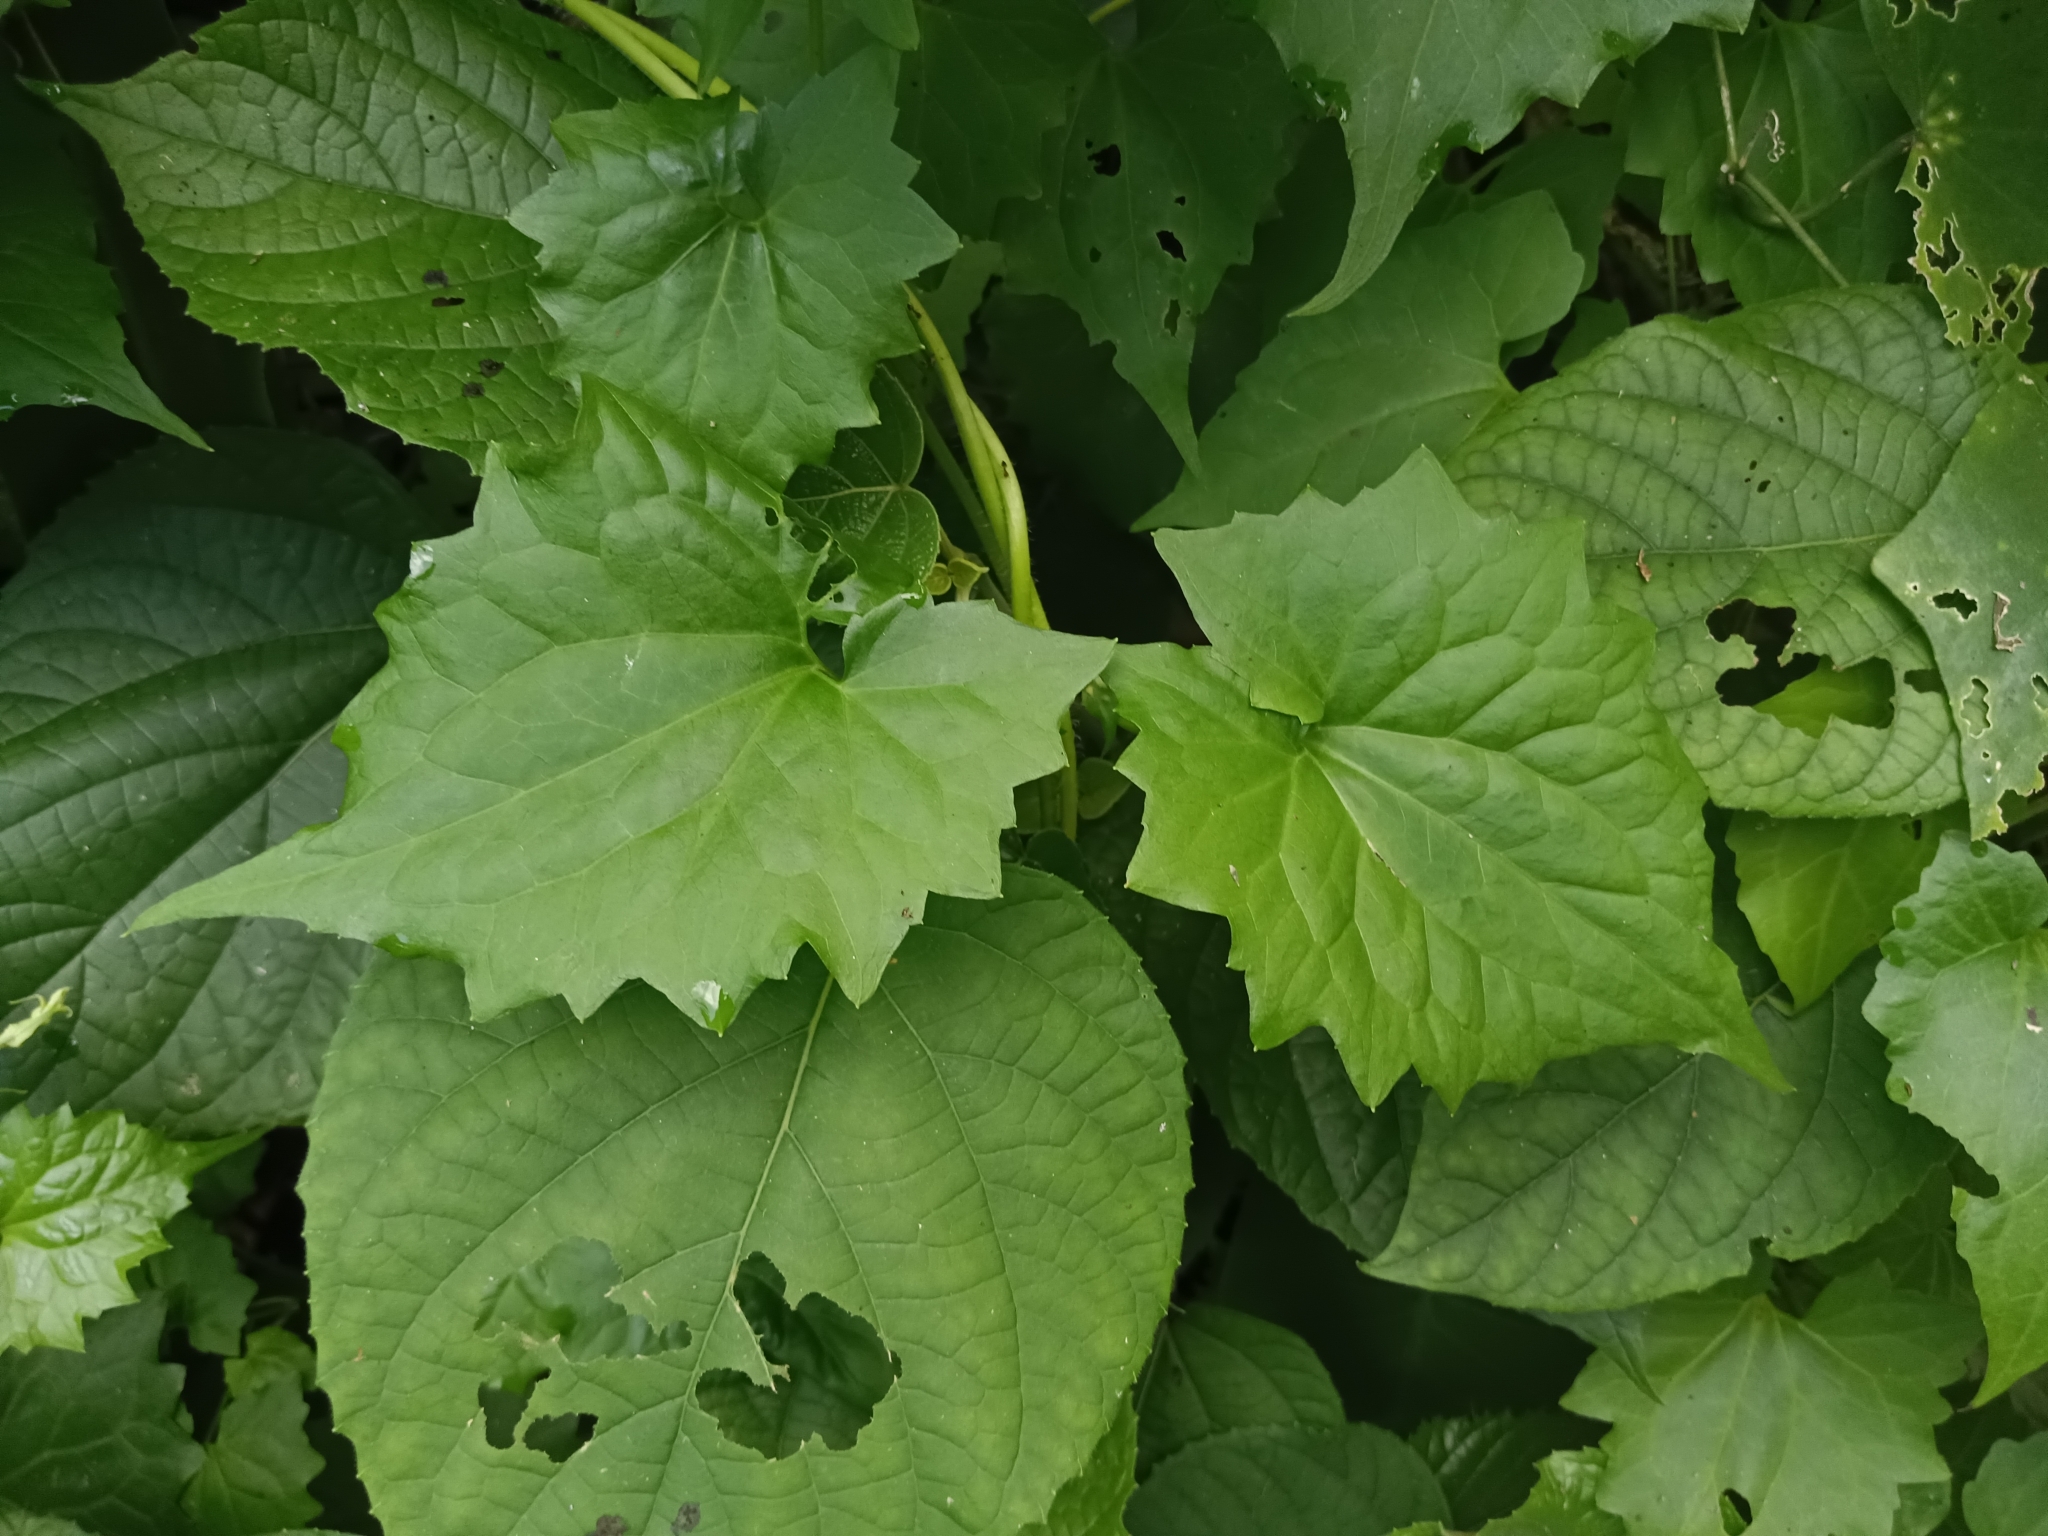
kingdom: Plantae
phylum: Tracheophyta
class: Magnoliopsida
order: Asterales
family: Asteraceae
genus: Mikania
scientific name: Mikania micrantha
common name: Mile-a-minute
